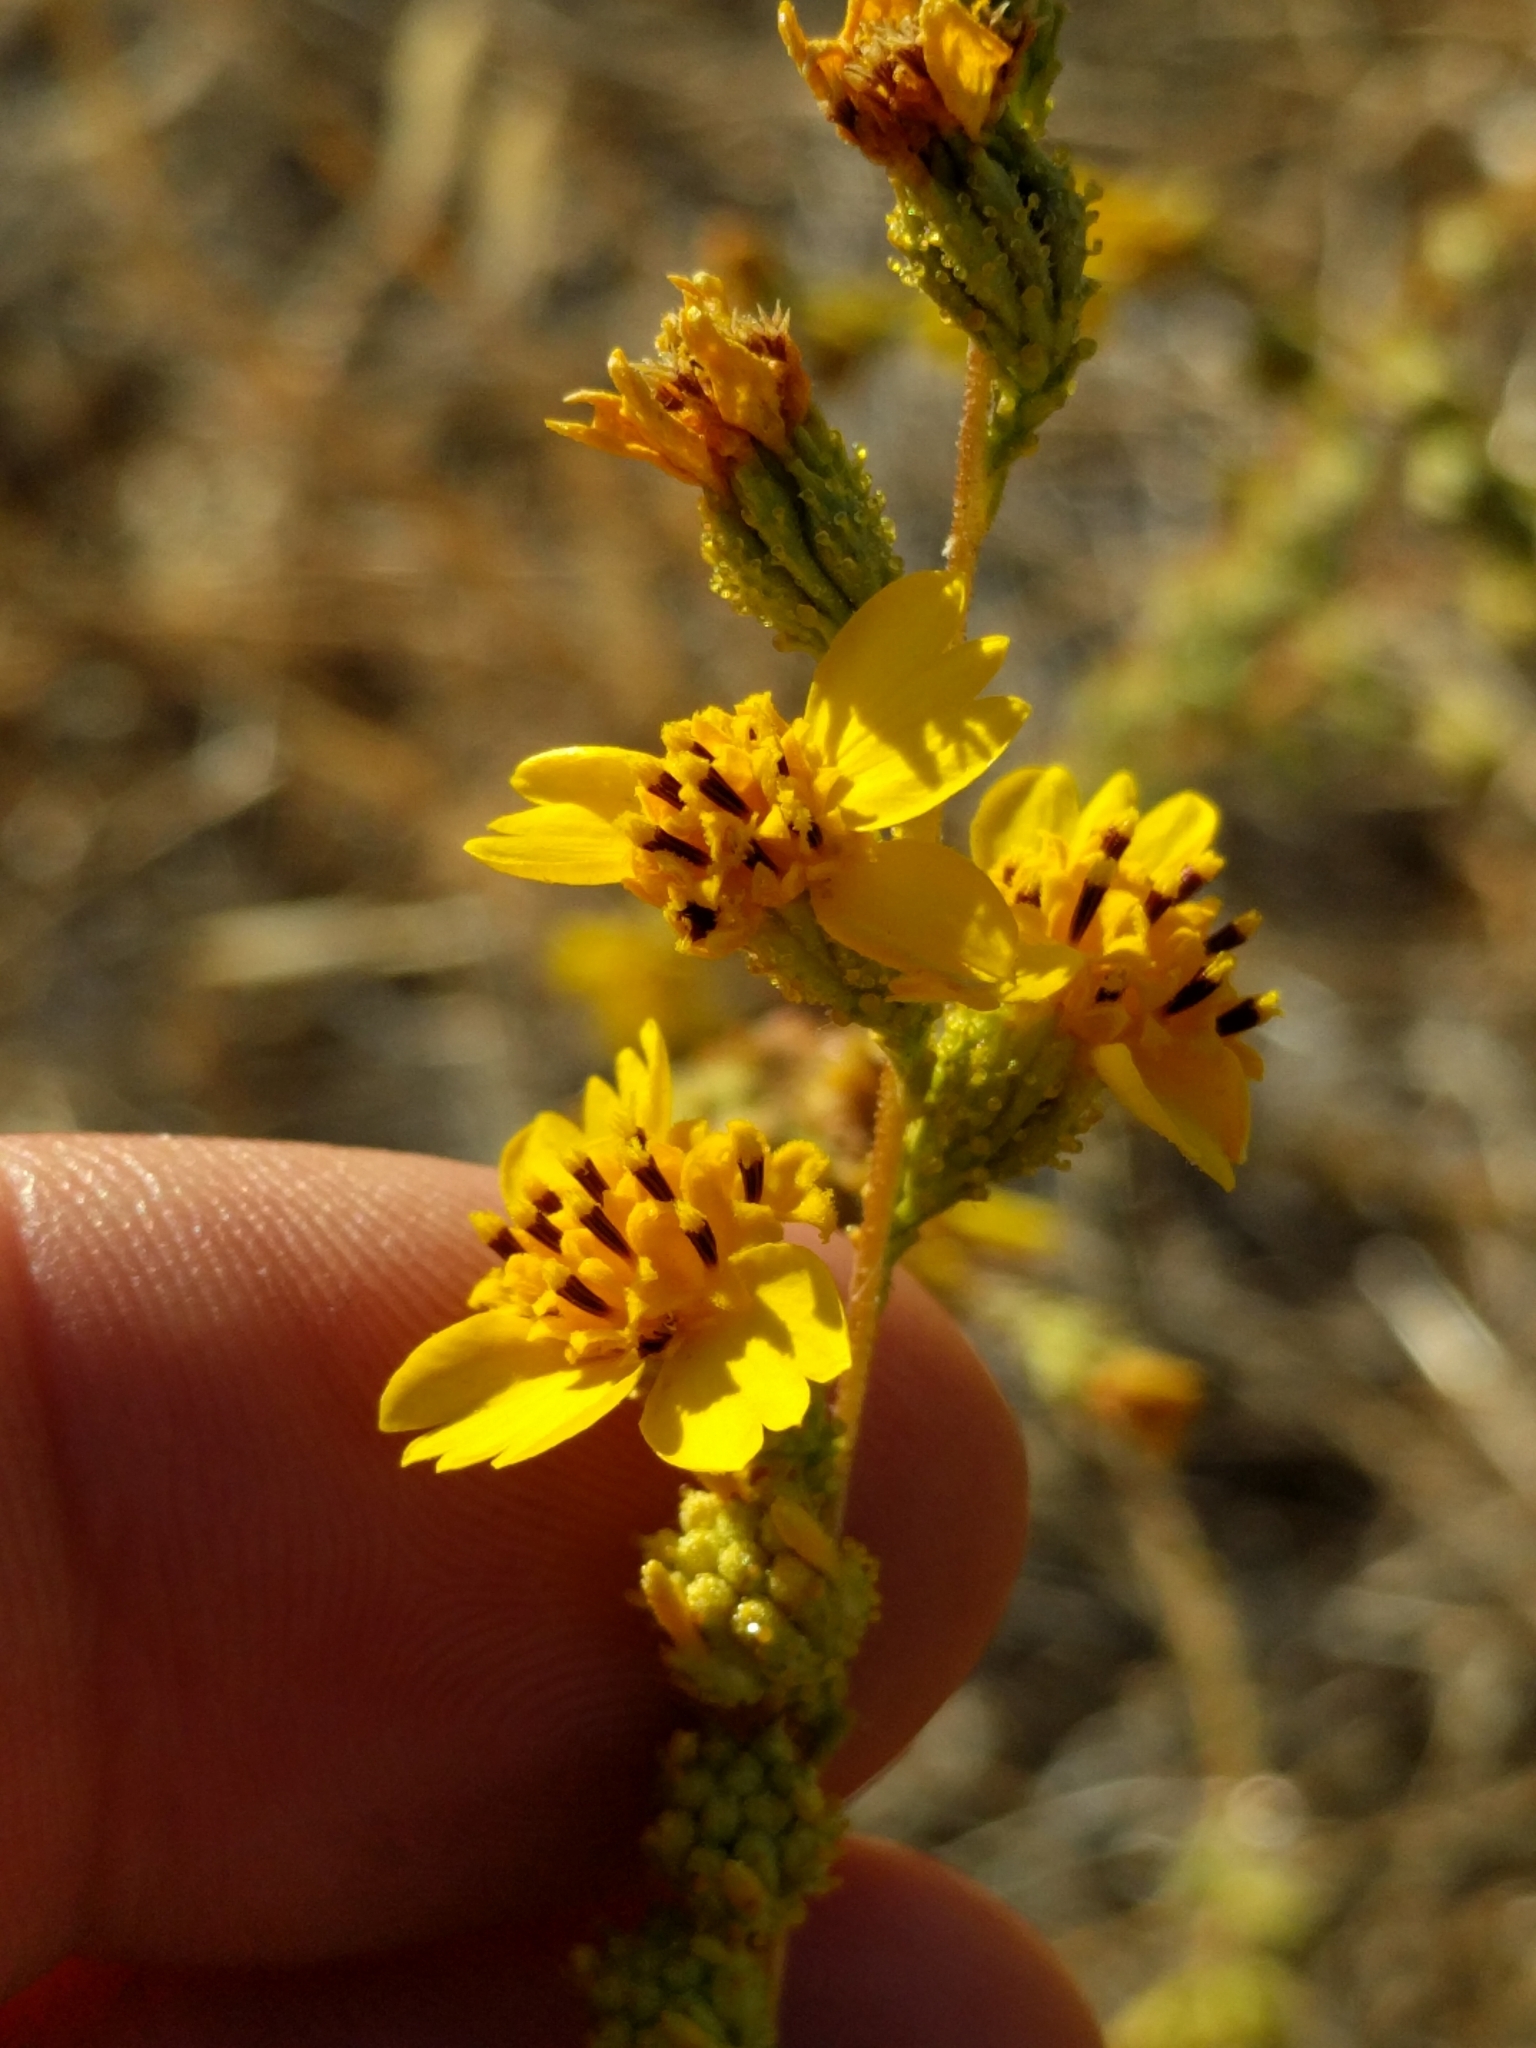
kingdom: Plantae
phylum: Tracheophyta
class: Magnoliopsida
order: Asterales
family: Asteraceae
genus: Holocarpha
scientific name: Holocarpha virgata
